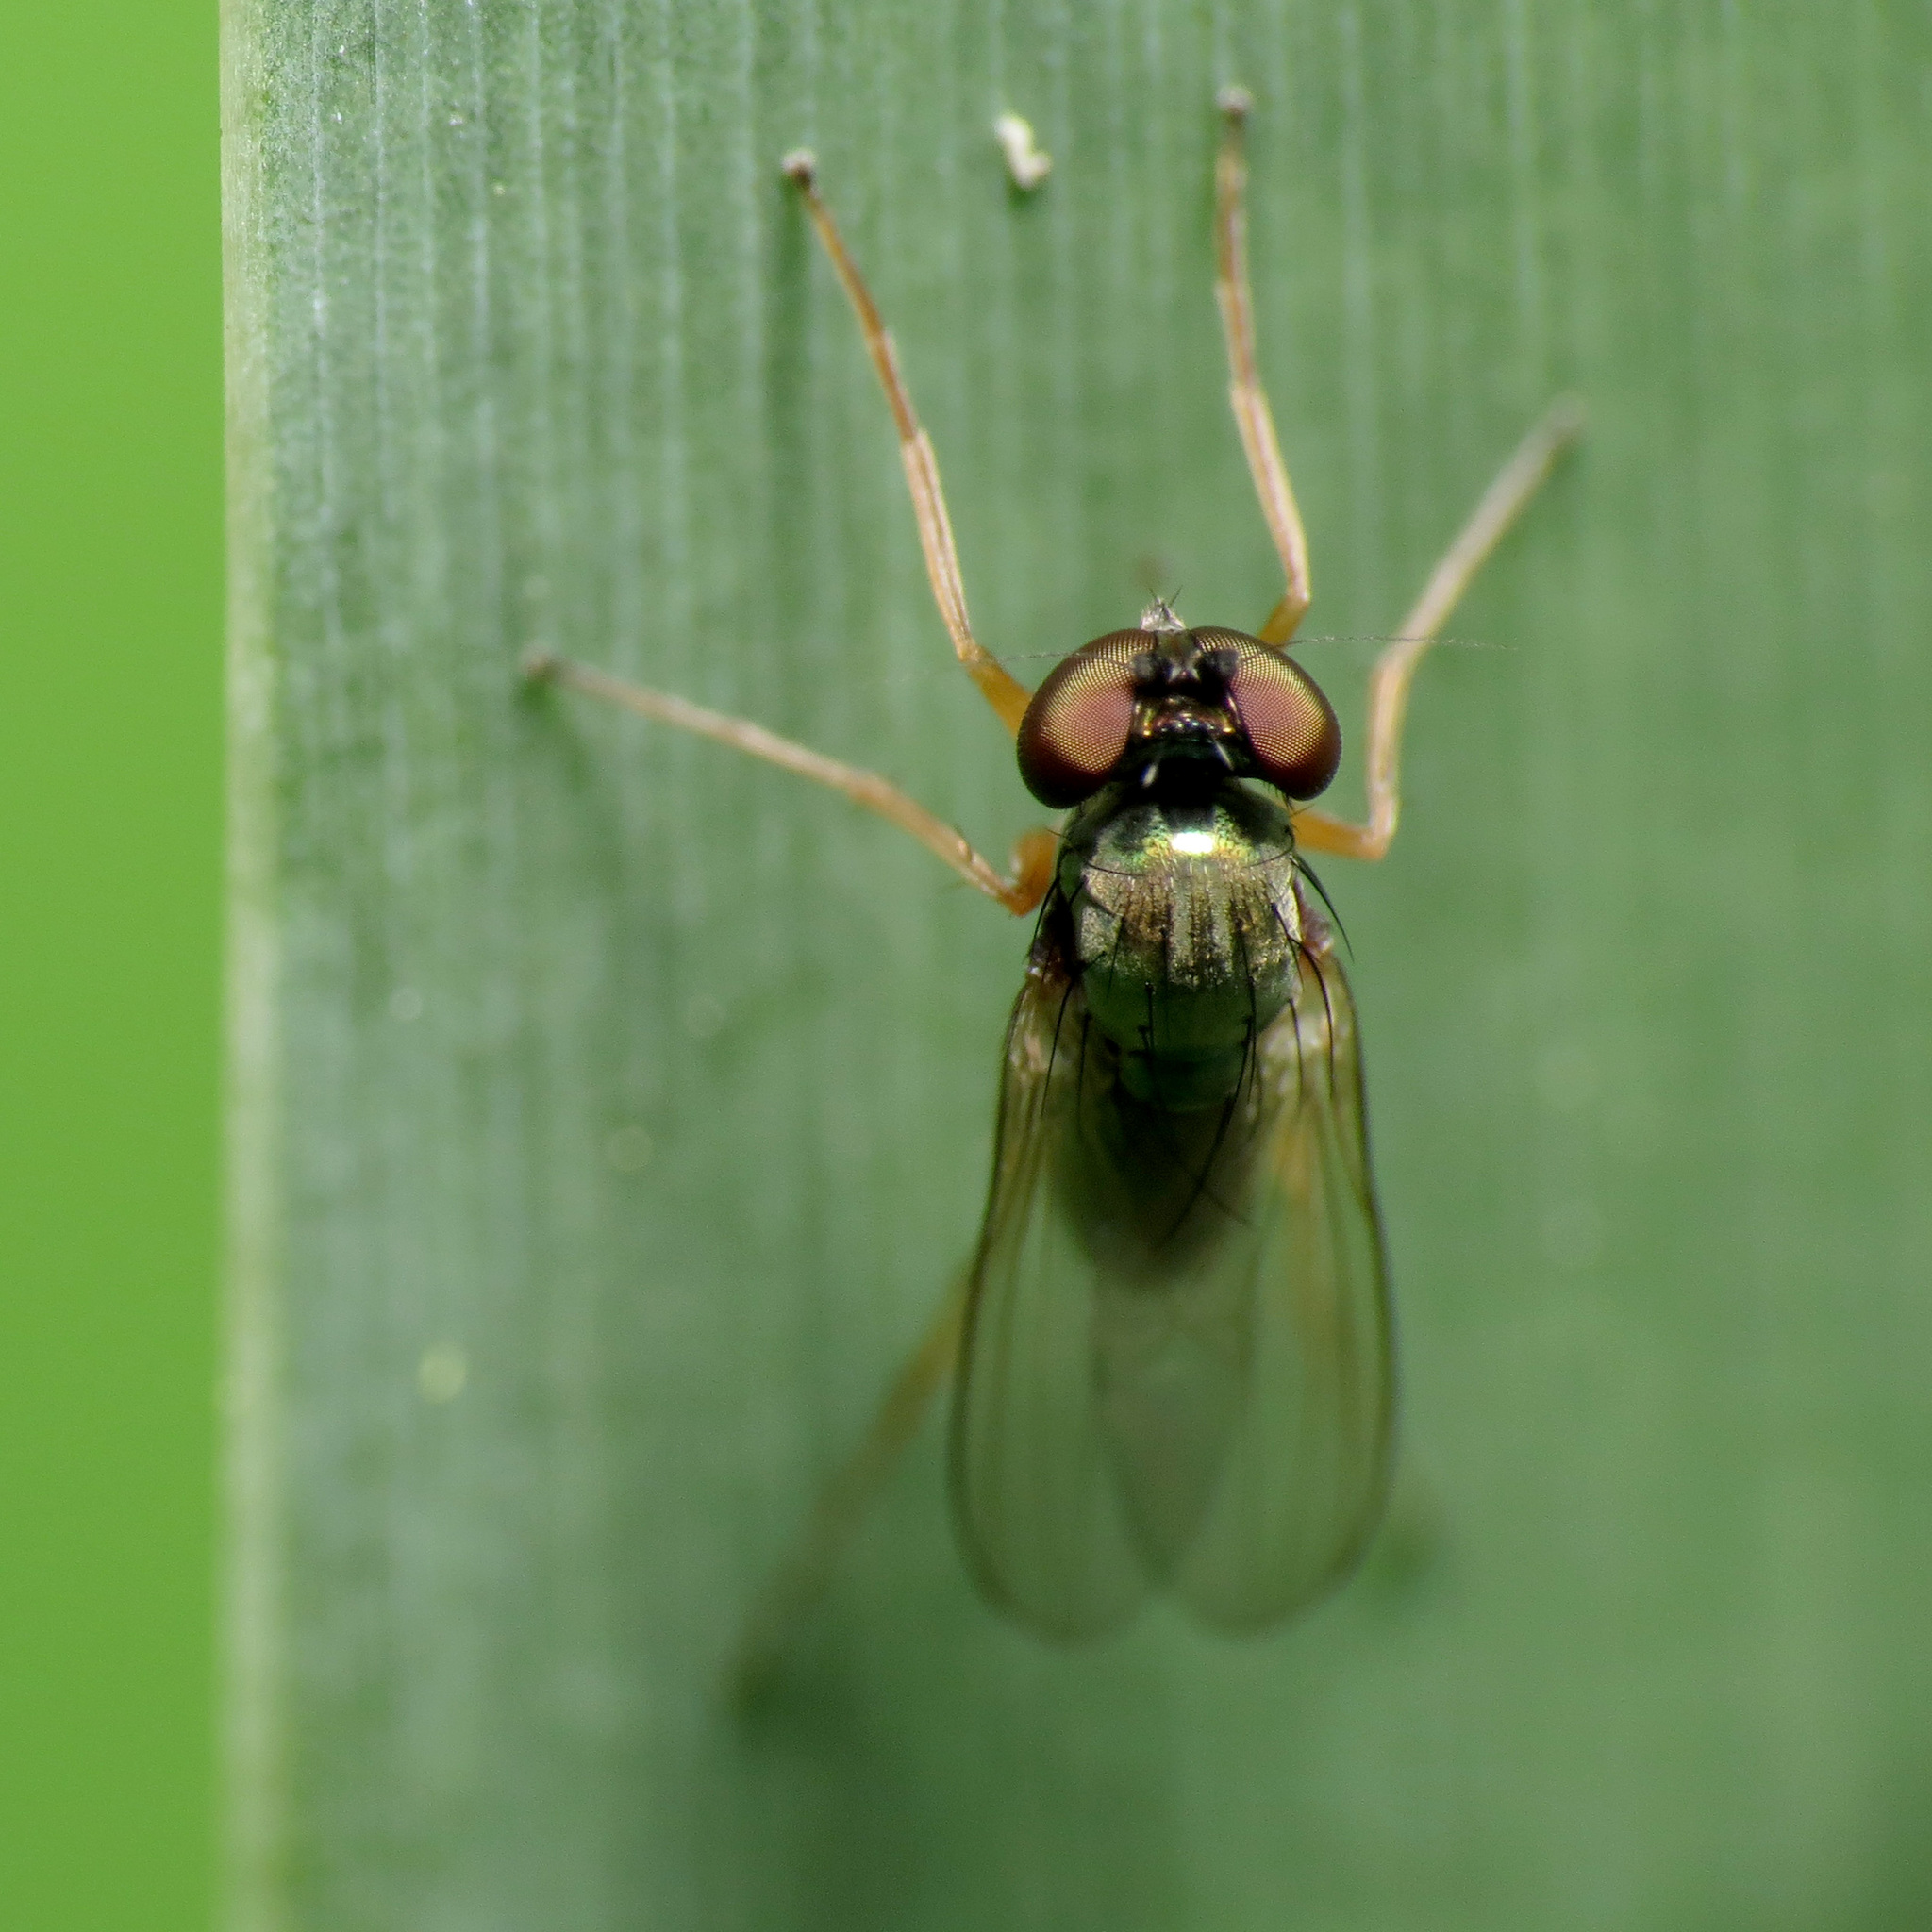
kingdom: Animalia
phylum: Arthropoda
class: Insecta
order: Diptera
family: Dolichopodidae
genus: Medetera
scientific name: Medetera aberrans
